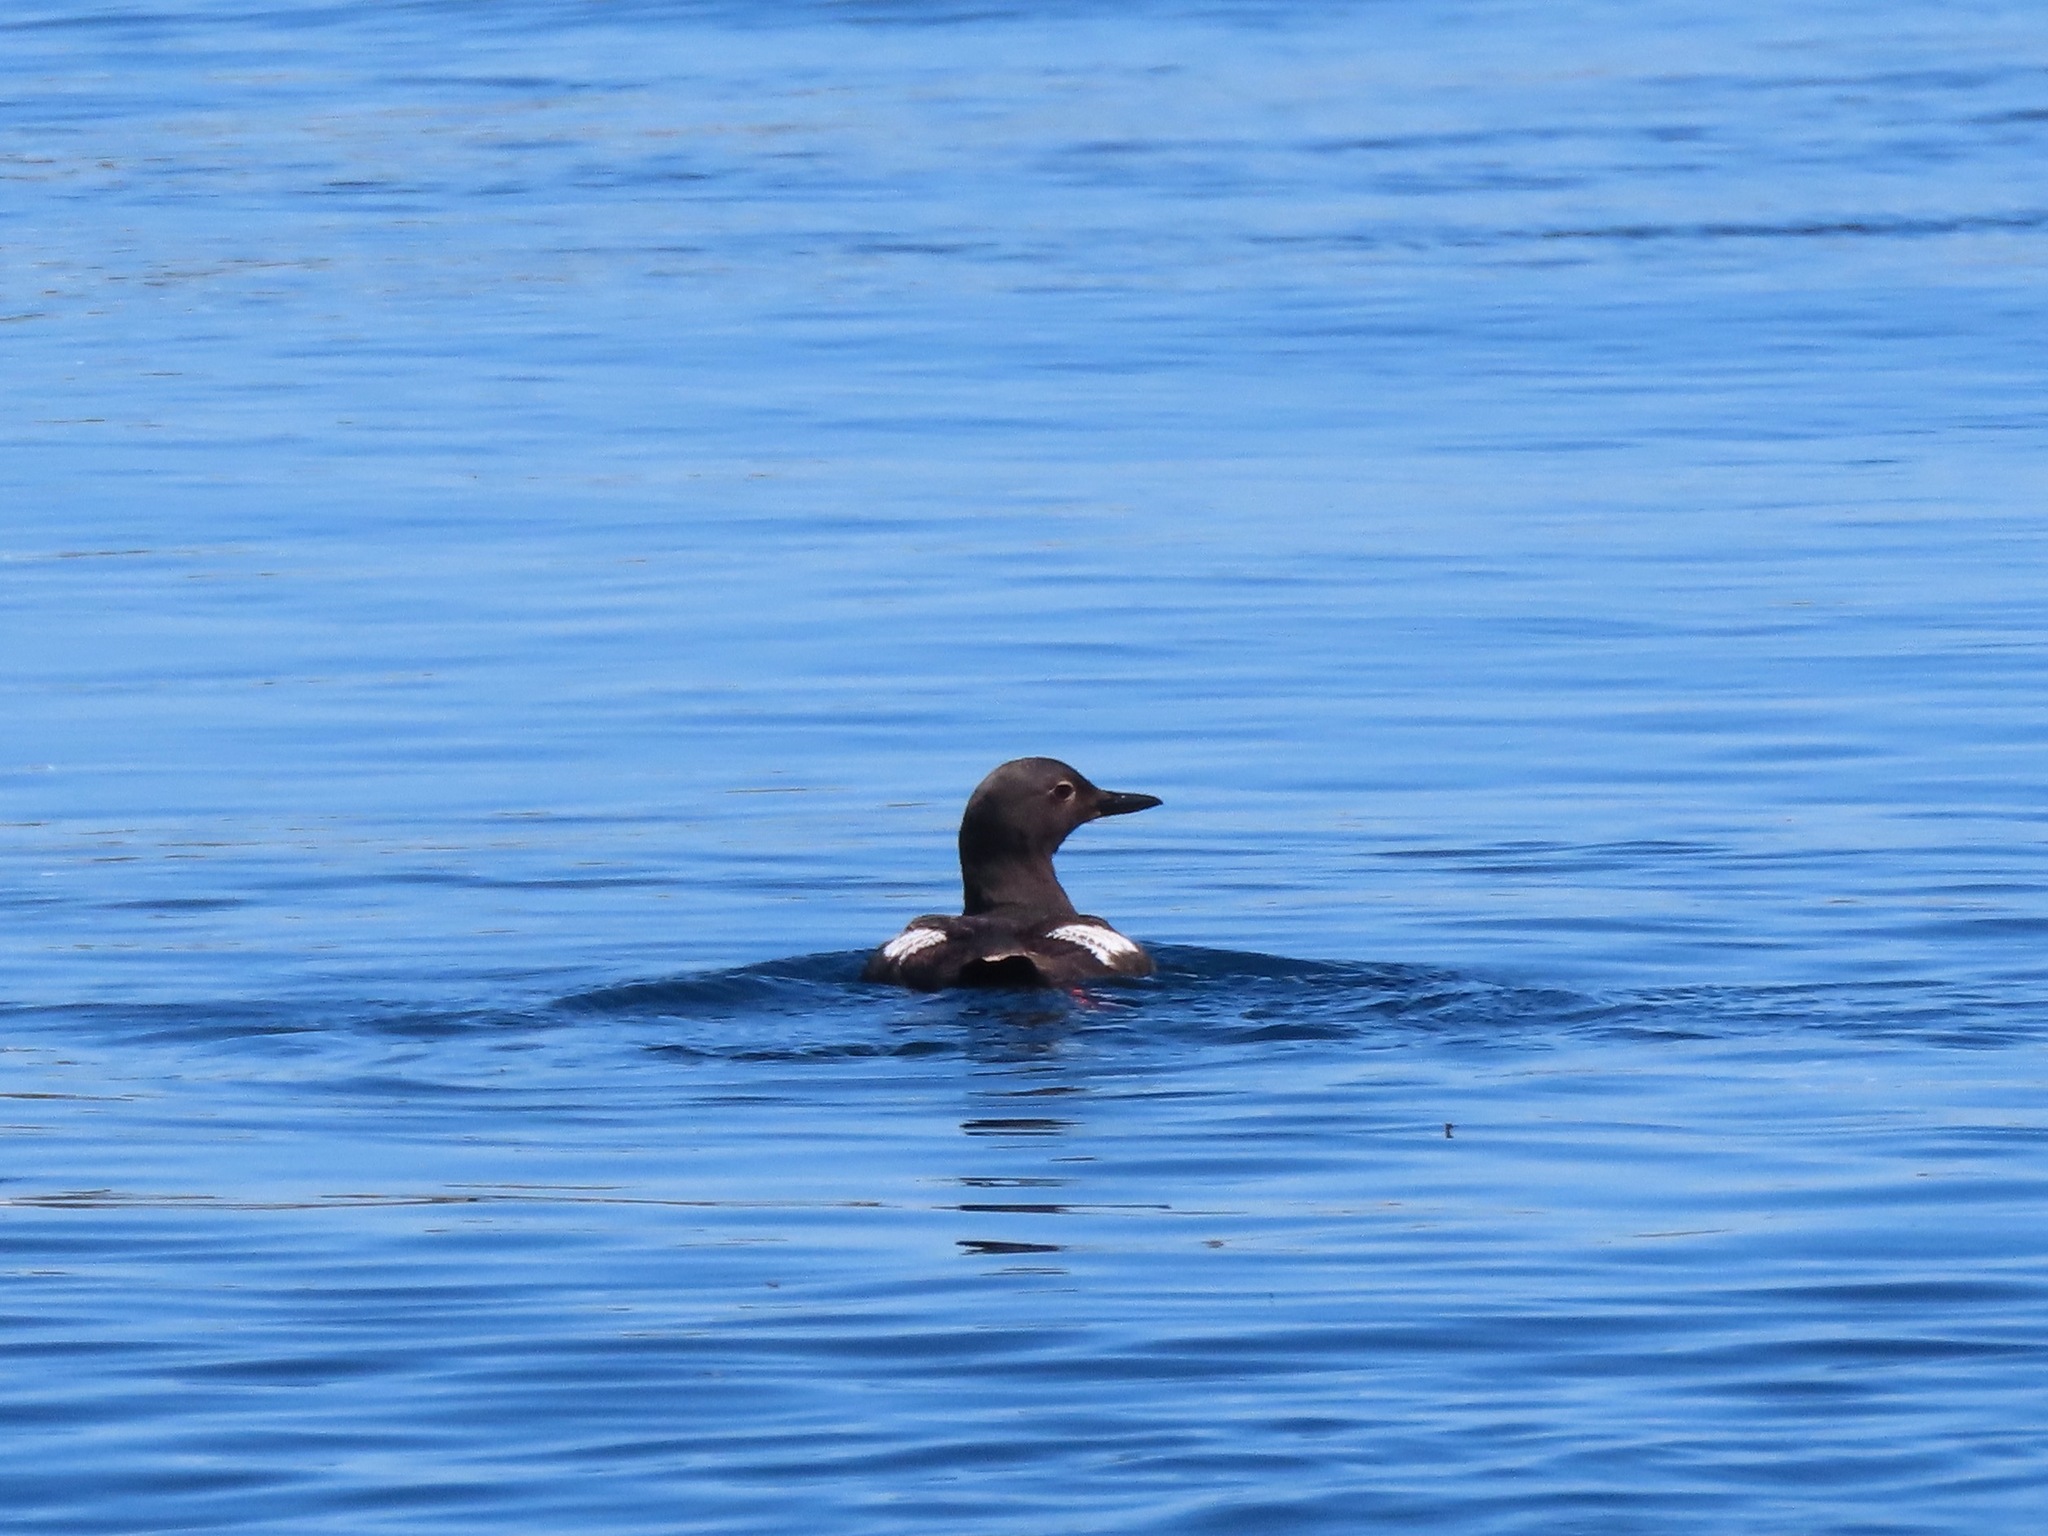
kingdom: Animalia
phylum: Chordata
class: Aves
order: Charadriiformes
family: Alcidae
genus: Cepphus
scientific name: Cepphus columba
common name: Pigeon guillemot
